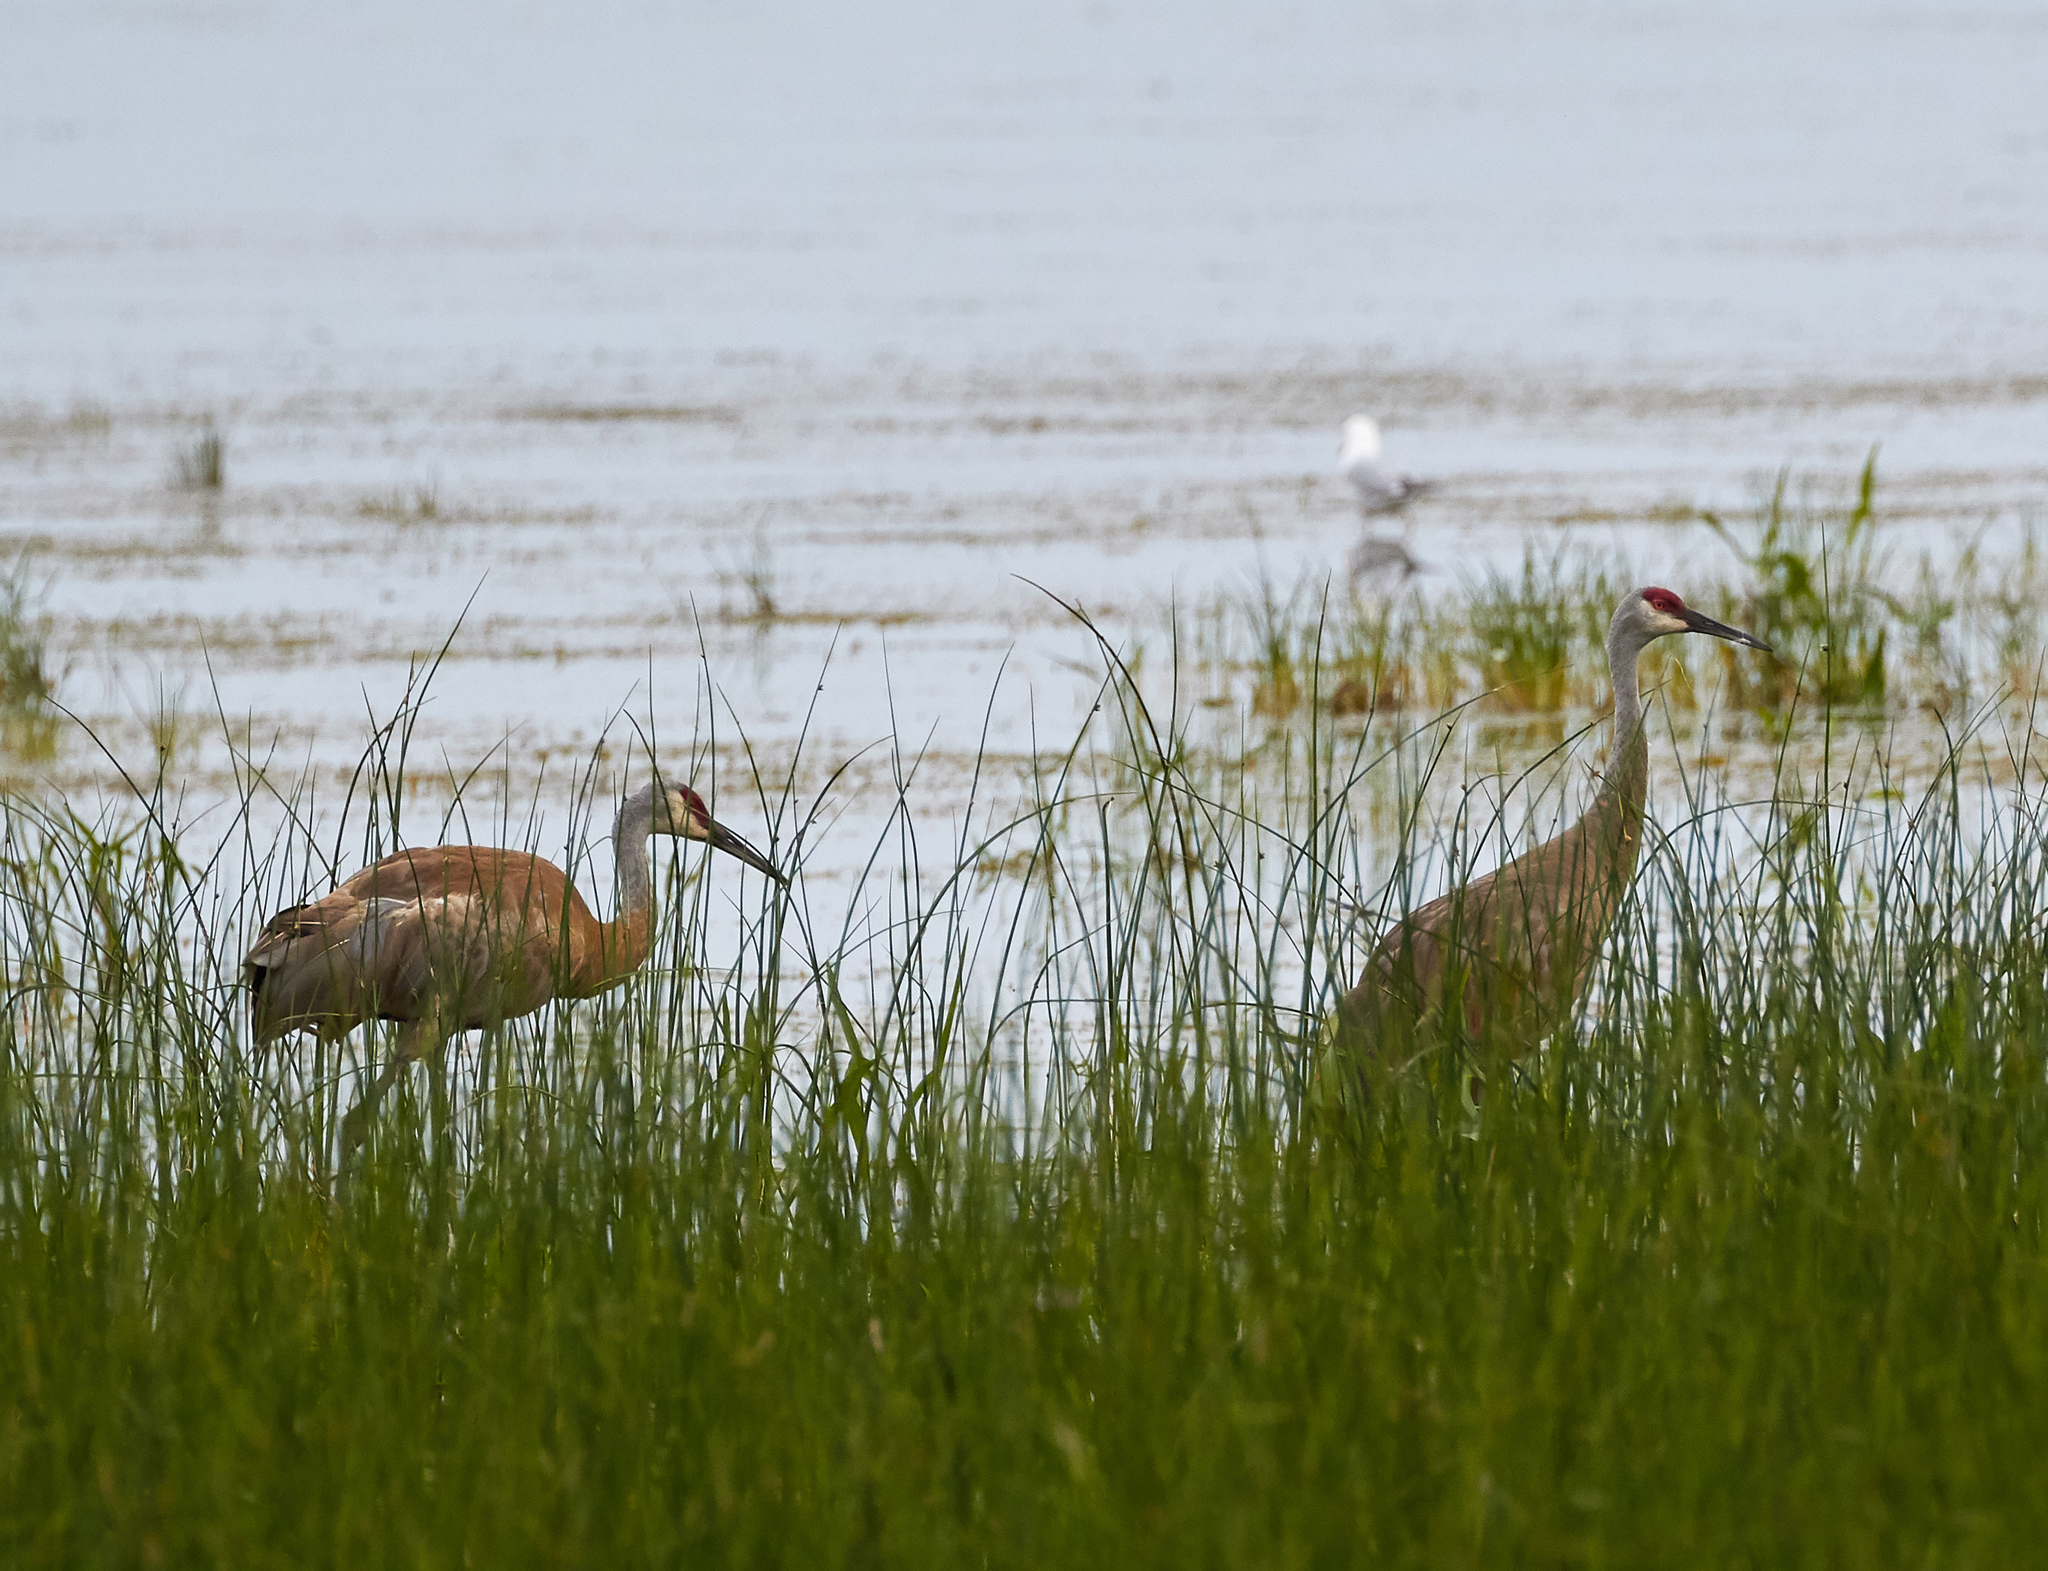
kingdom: Animalia
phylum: Chordata
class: Aves
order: Gruiformes
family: Gruidae
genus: Grus
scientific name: Grus canadensis
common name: Sandhill crane
